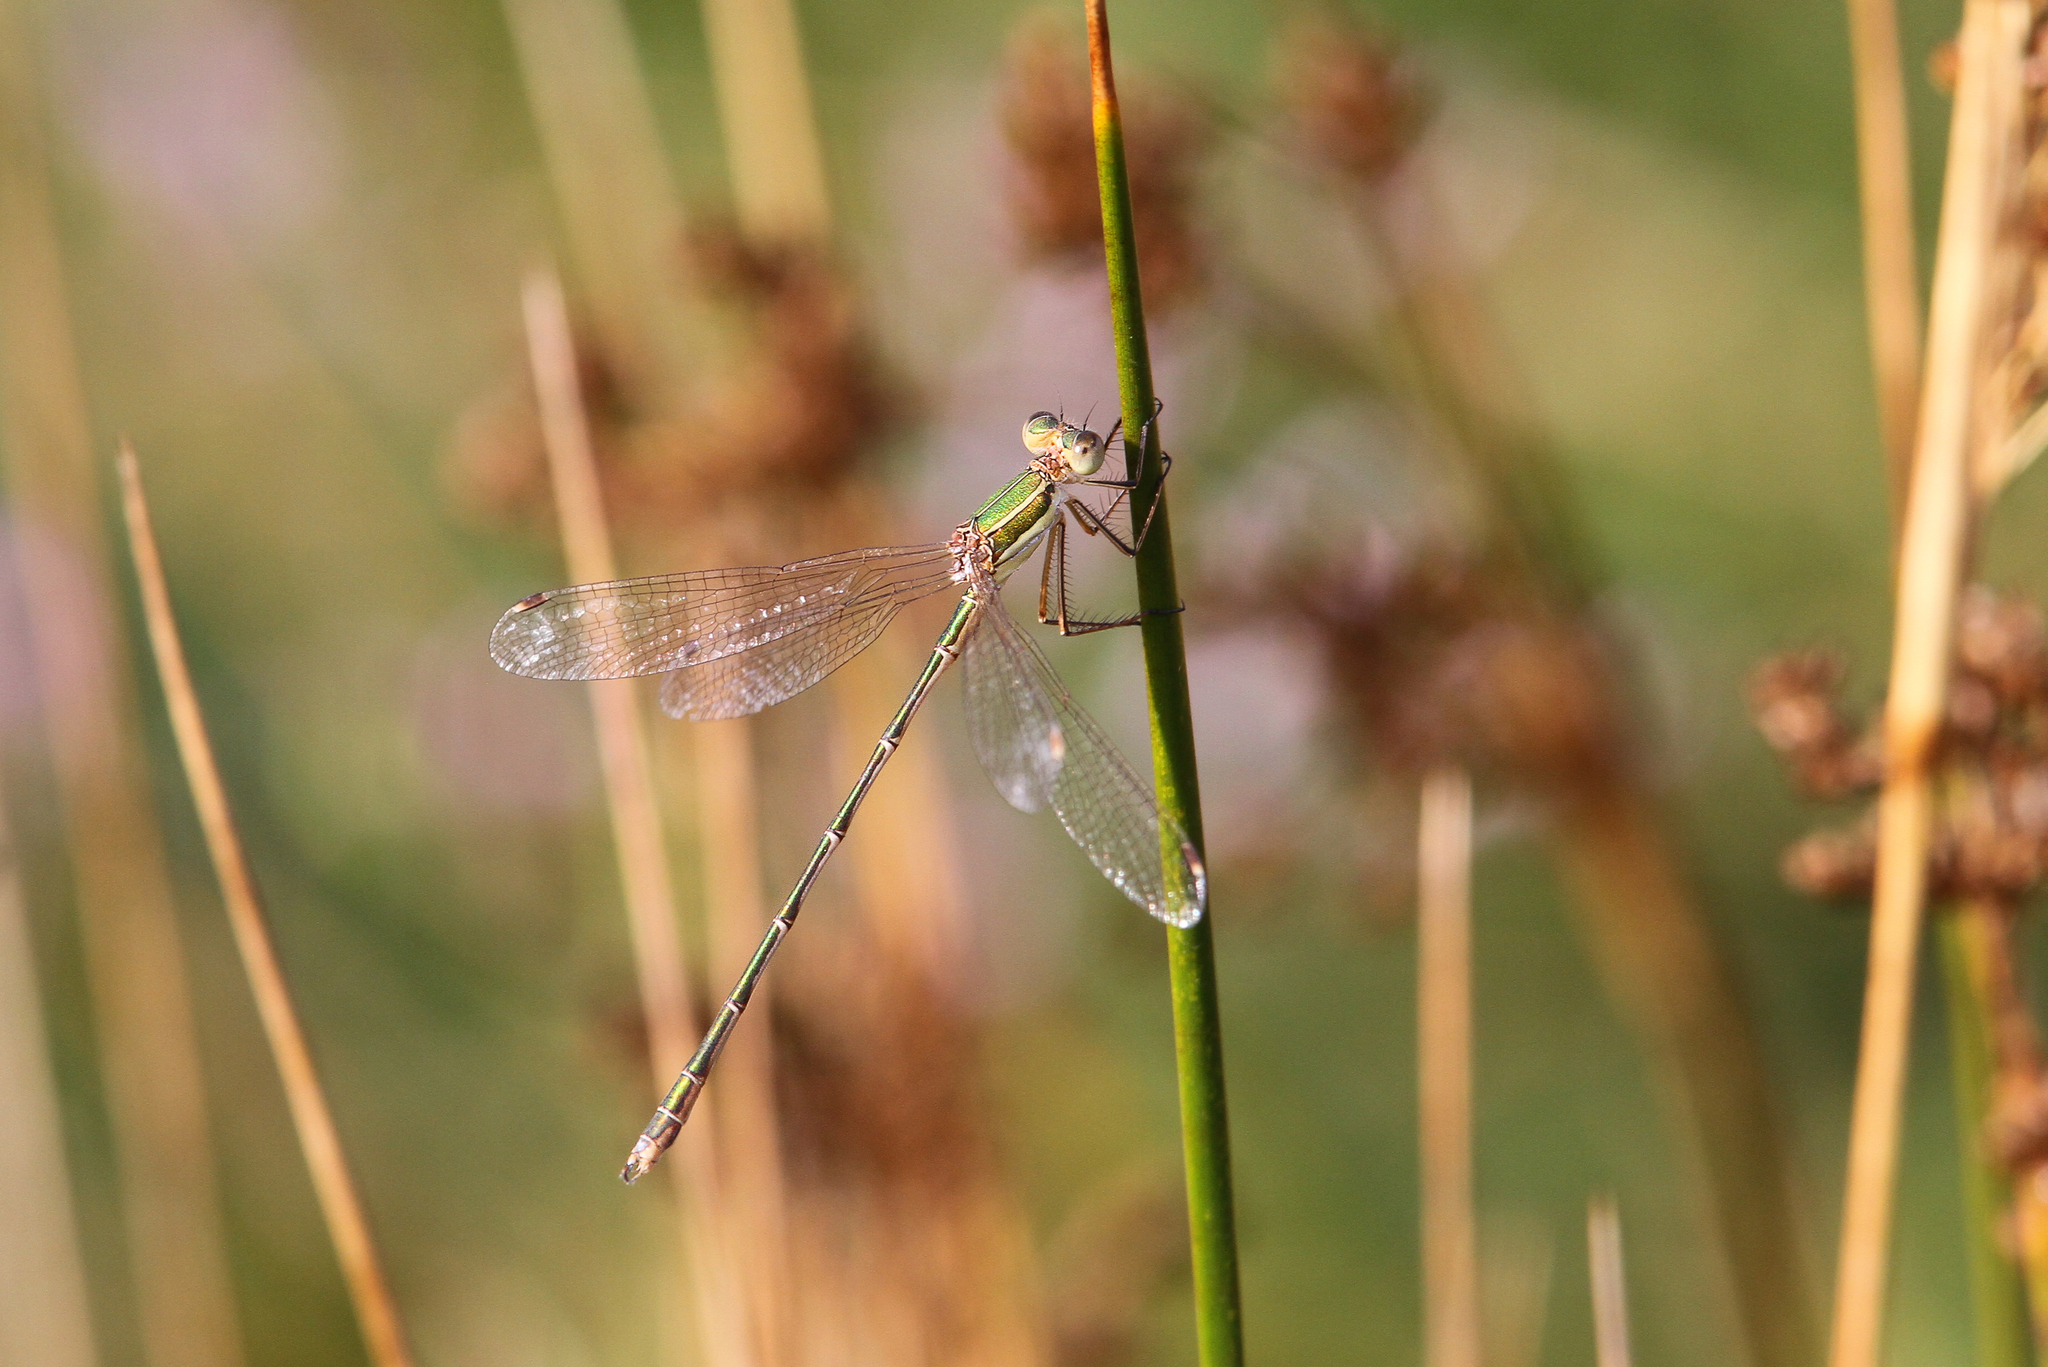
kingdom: Animalia
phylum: Arthropoda
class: Insecta
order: Odonata
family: Lestidae
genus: Lestes
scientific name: Lestes barbarus
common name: Migrant spreadwing
